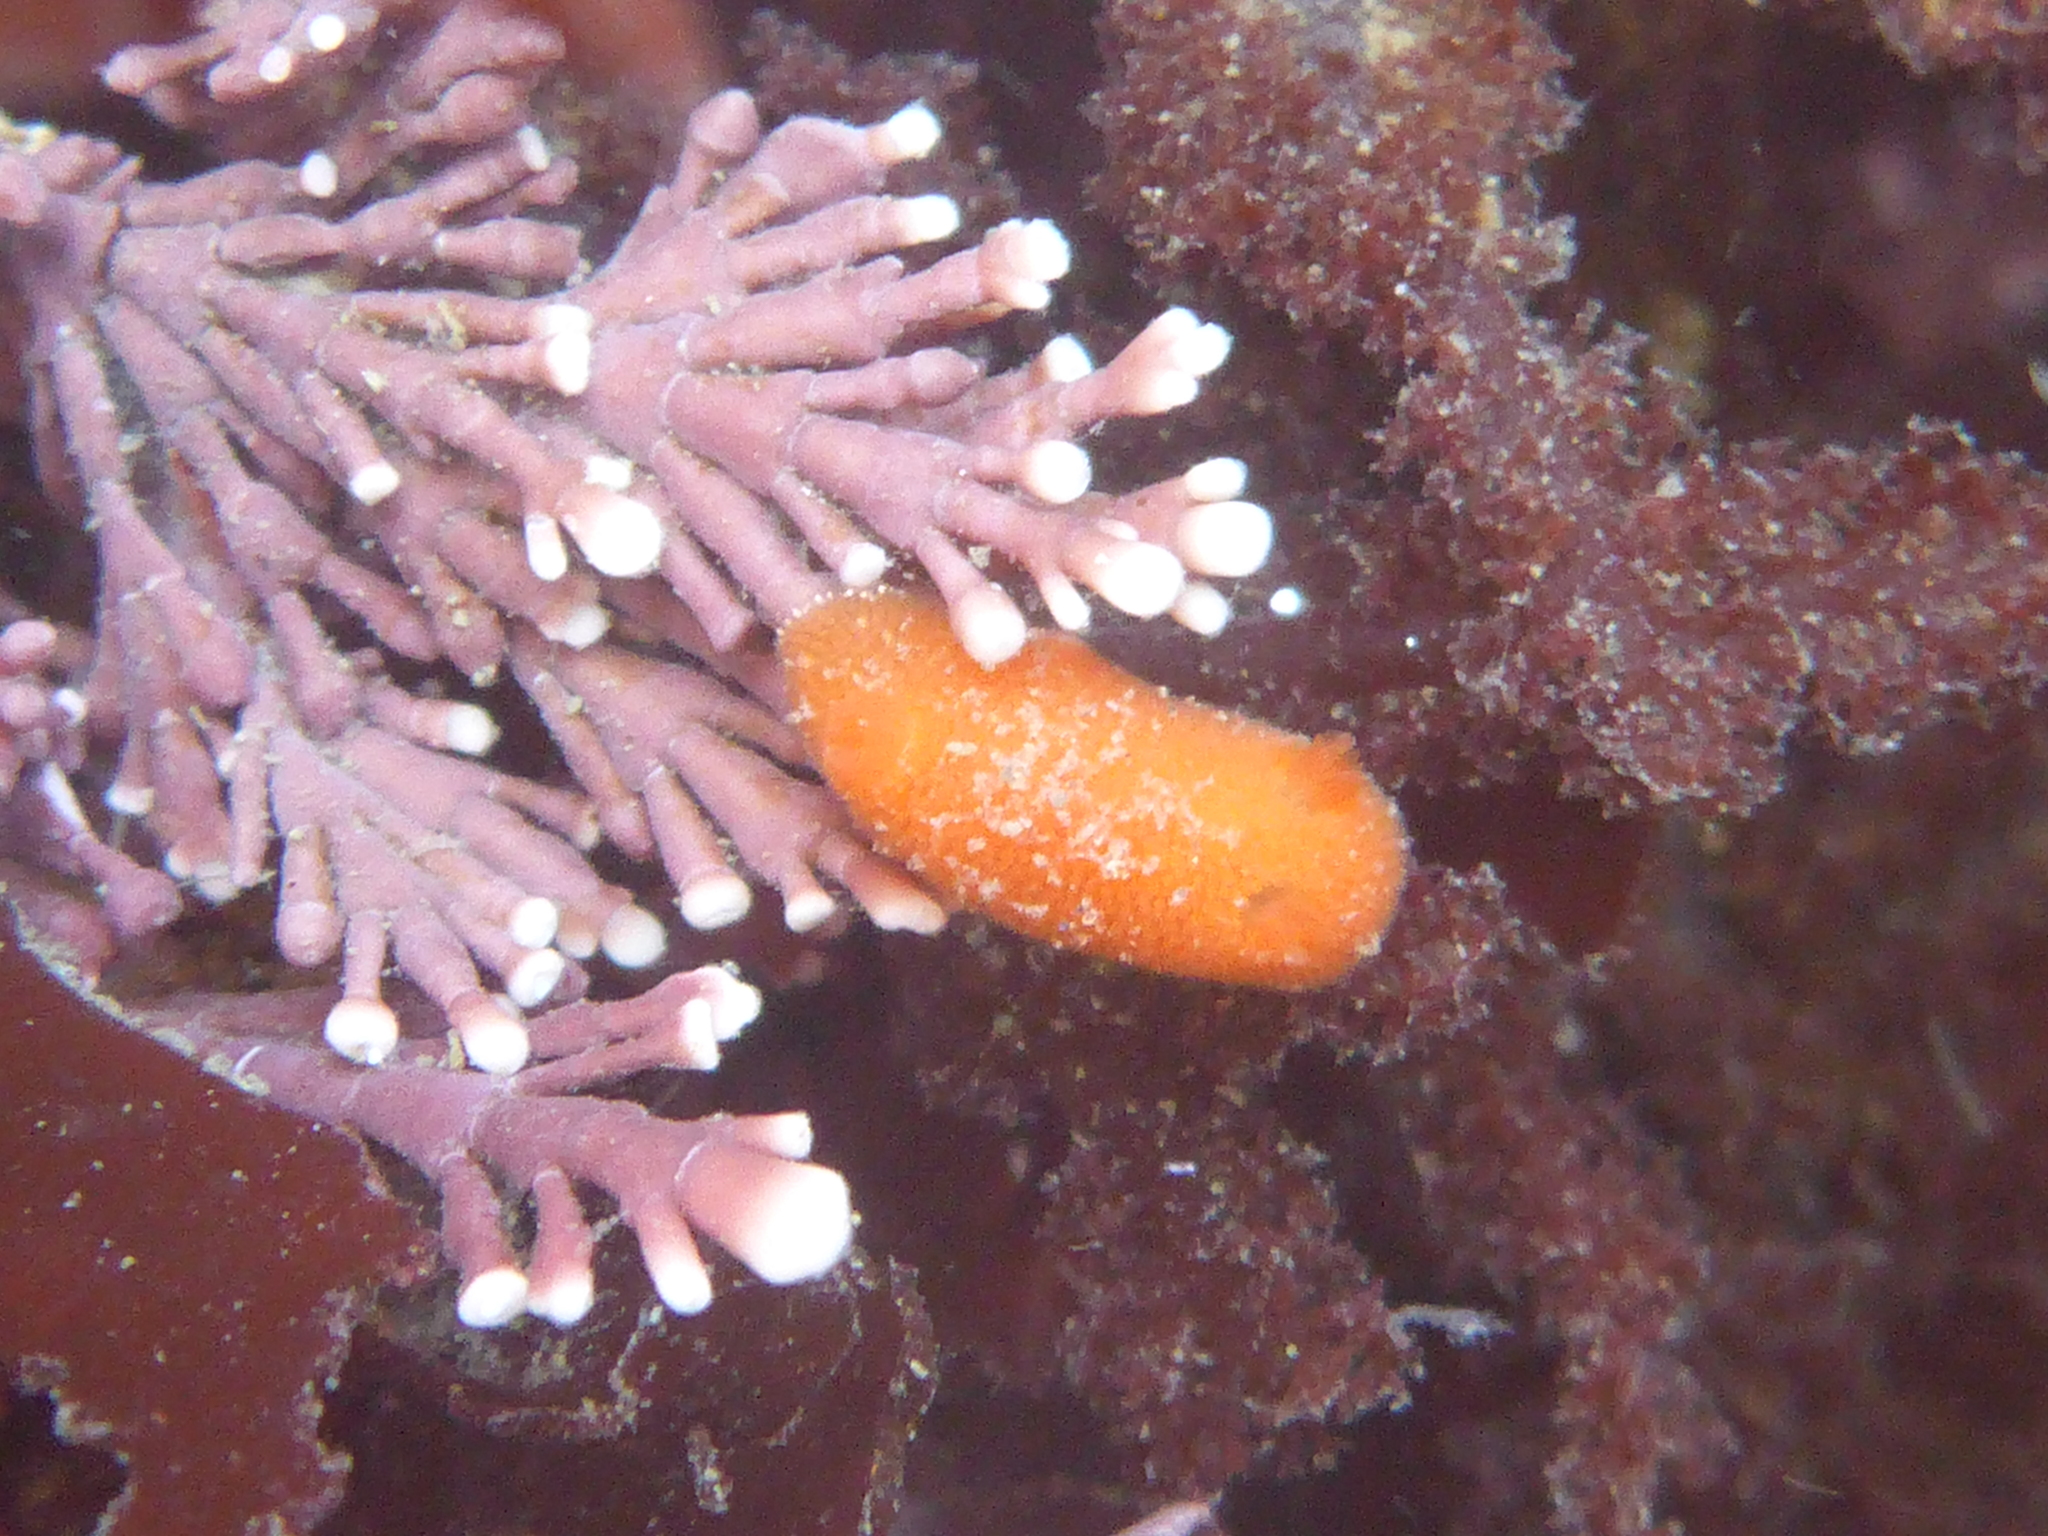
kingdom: Animalia
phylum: Mollusca
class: Gastropoda
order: Nudibranchia
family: Discodorididae
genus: Rostanga
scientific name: Rostanga pulchra
